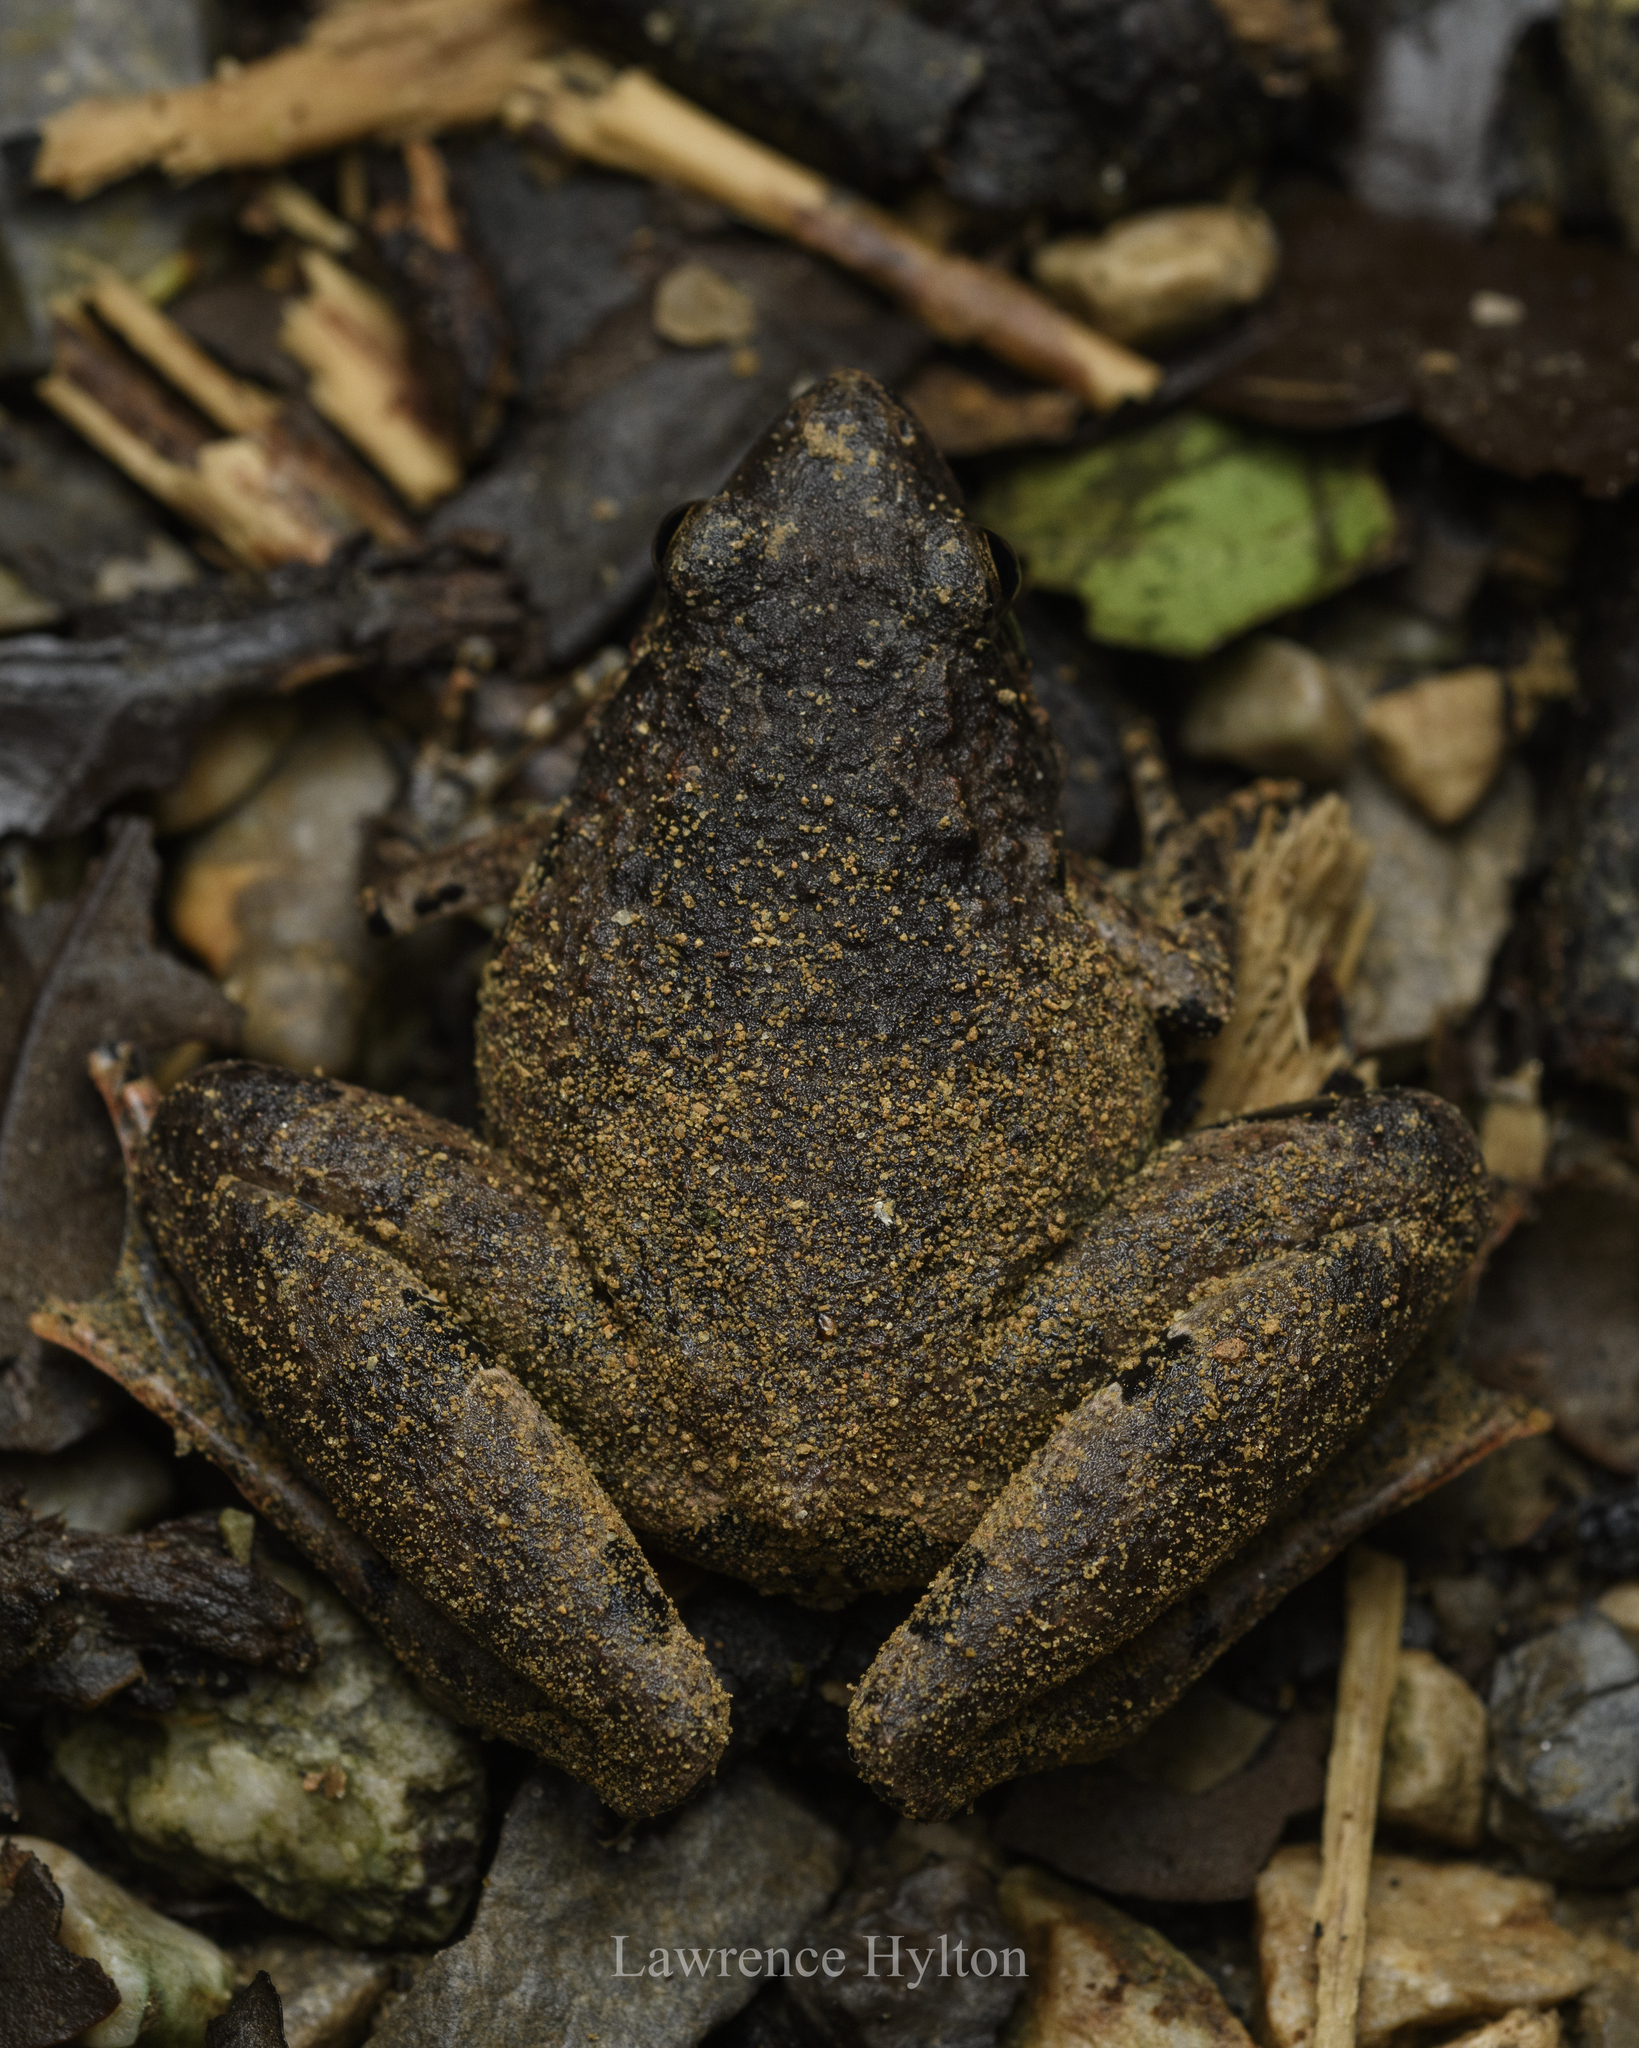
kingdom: Animalia
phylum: Chordata
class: Amphibia
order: Anura
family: Microhylidae
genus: Microhyla
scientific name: Microhyla berdmorei
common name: Berdmore’s narrow-mouthed frog,large pygmy frog
